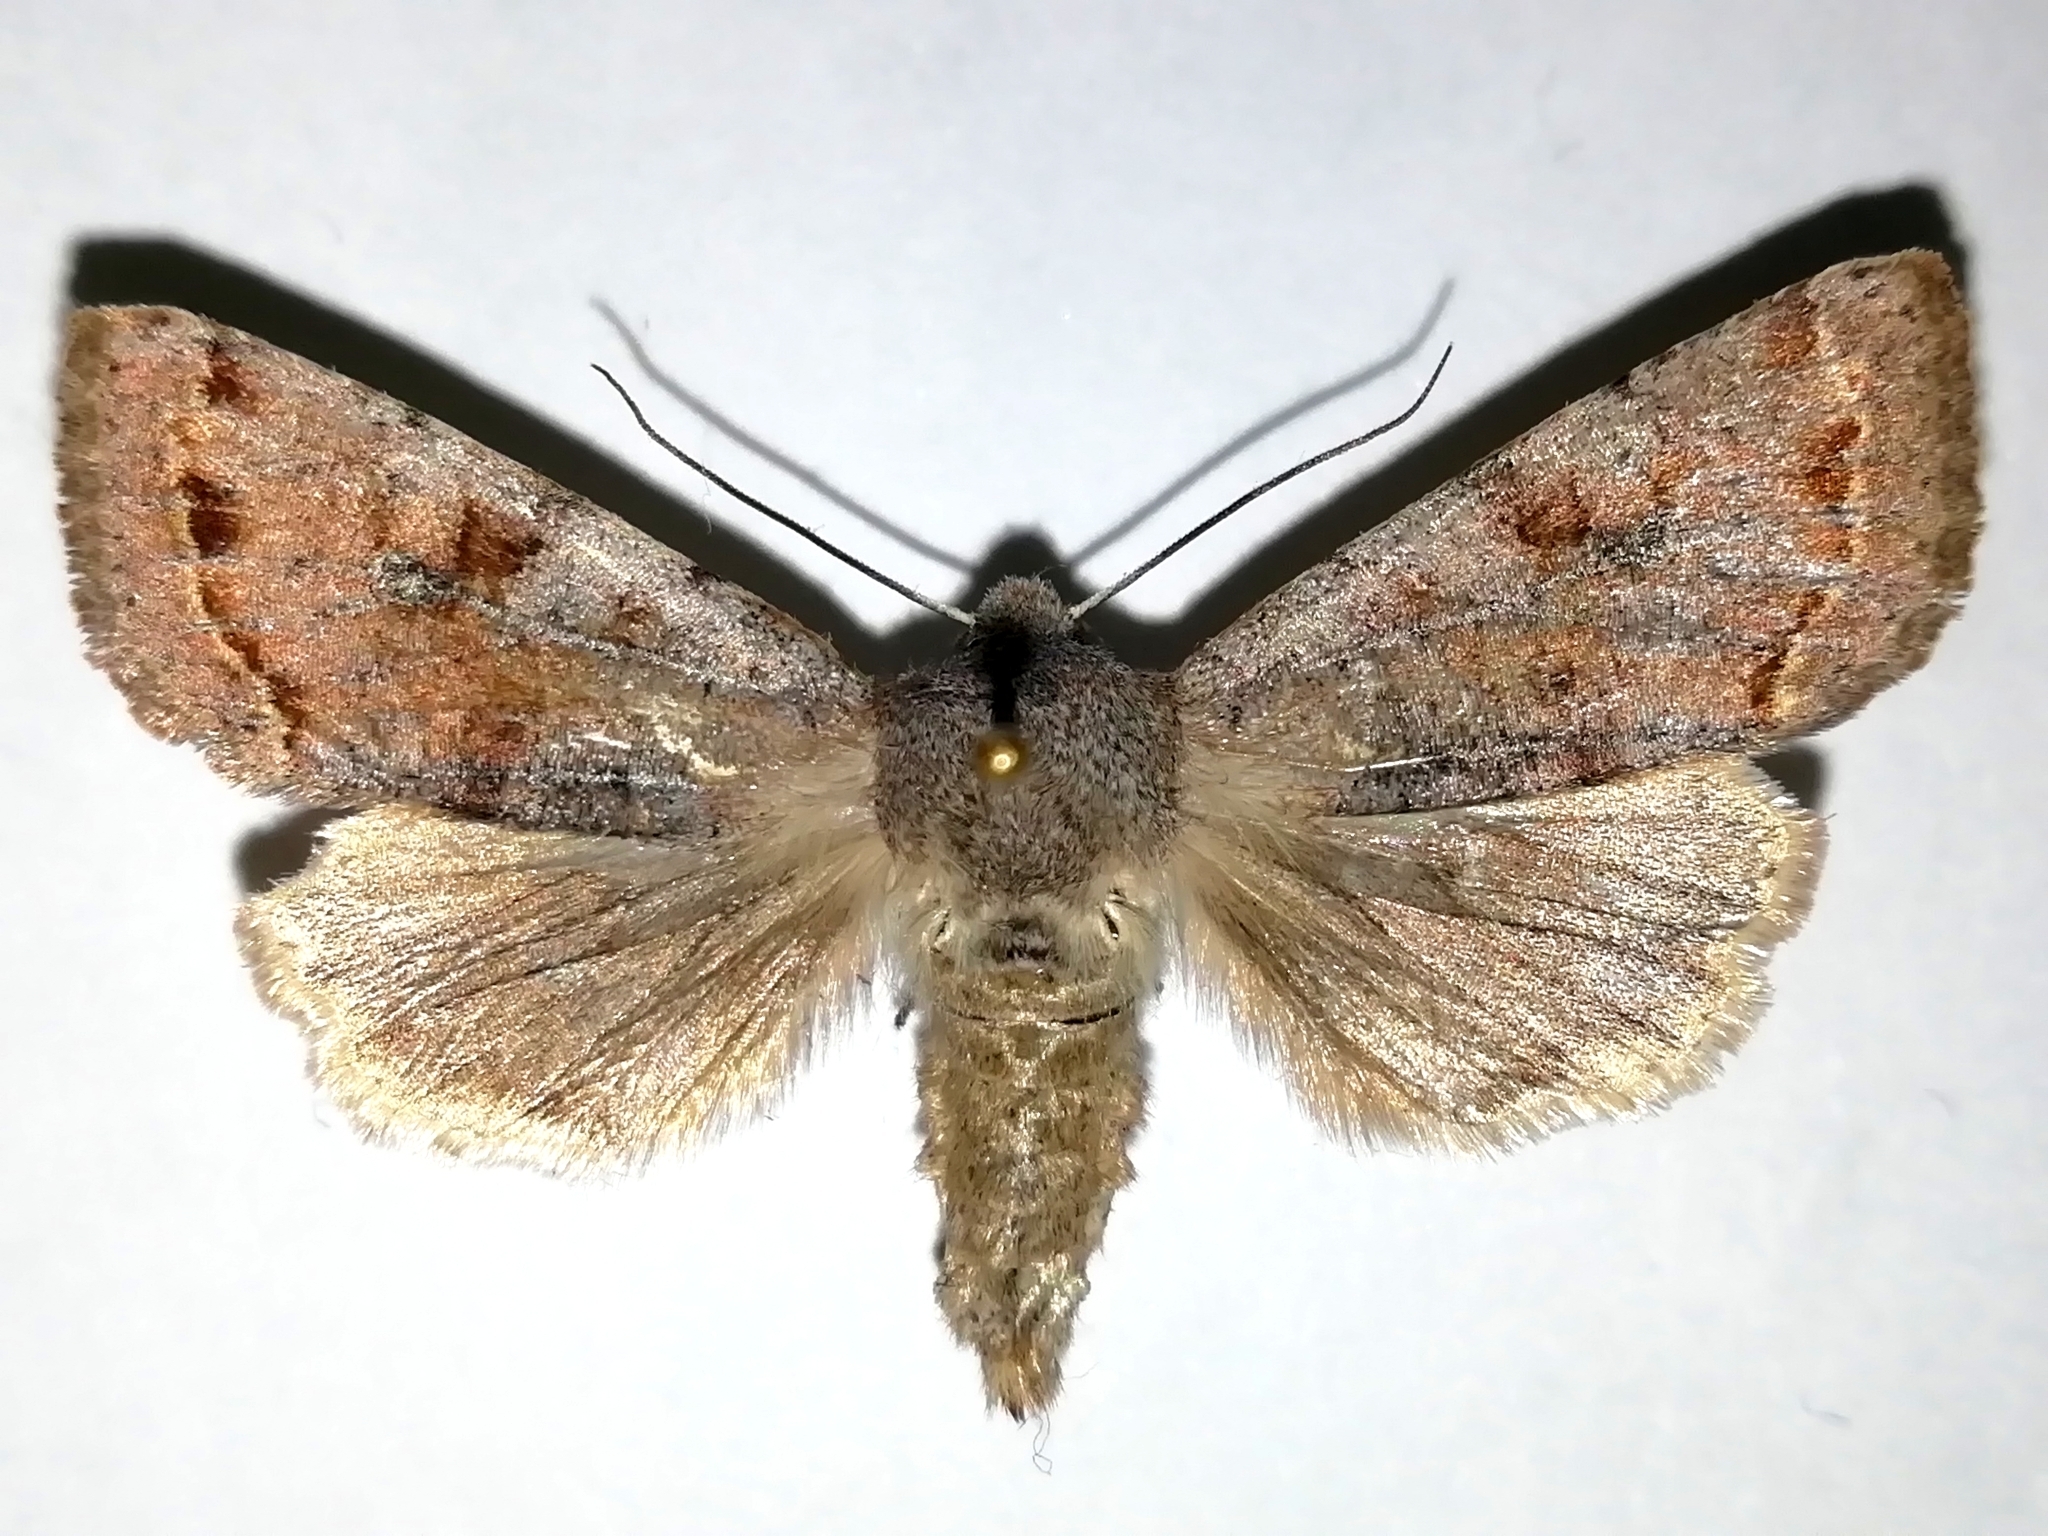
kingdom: Animalia
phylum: Arthropoda
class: Insecta
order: Lepidoptera
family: Noctuidae
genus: Orthosia
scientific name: Orthosia incerta
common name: Clouded drab
